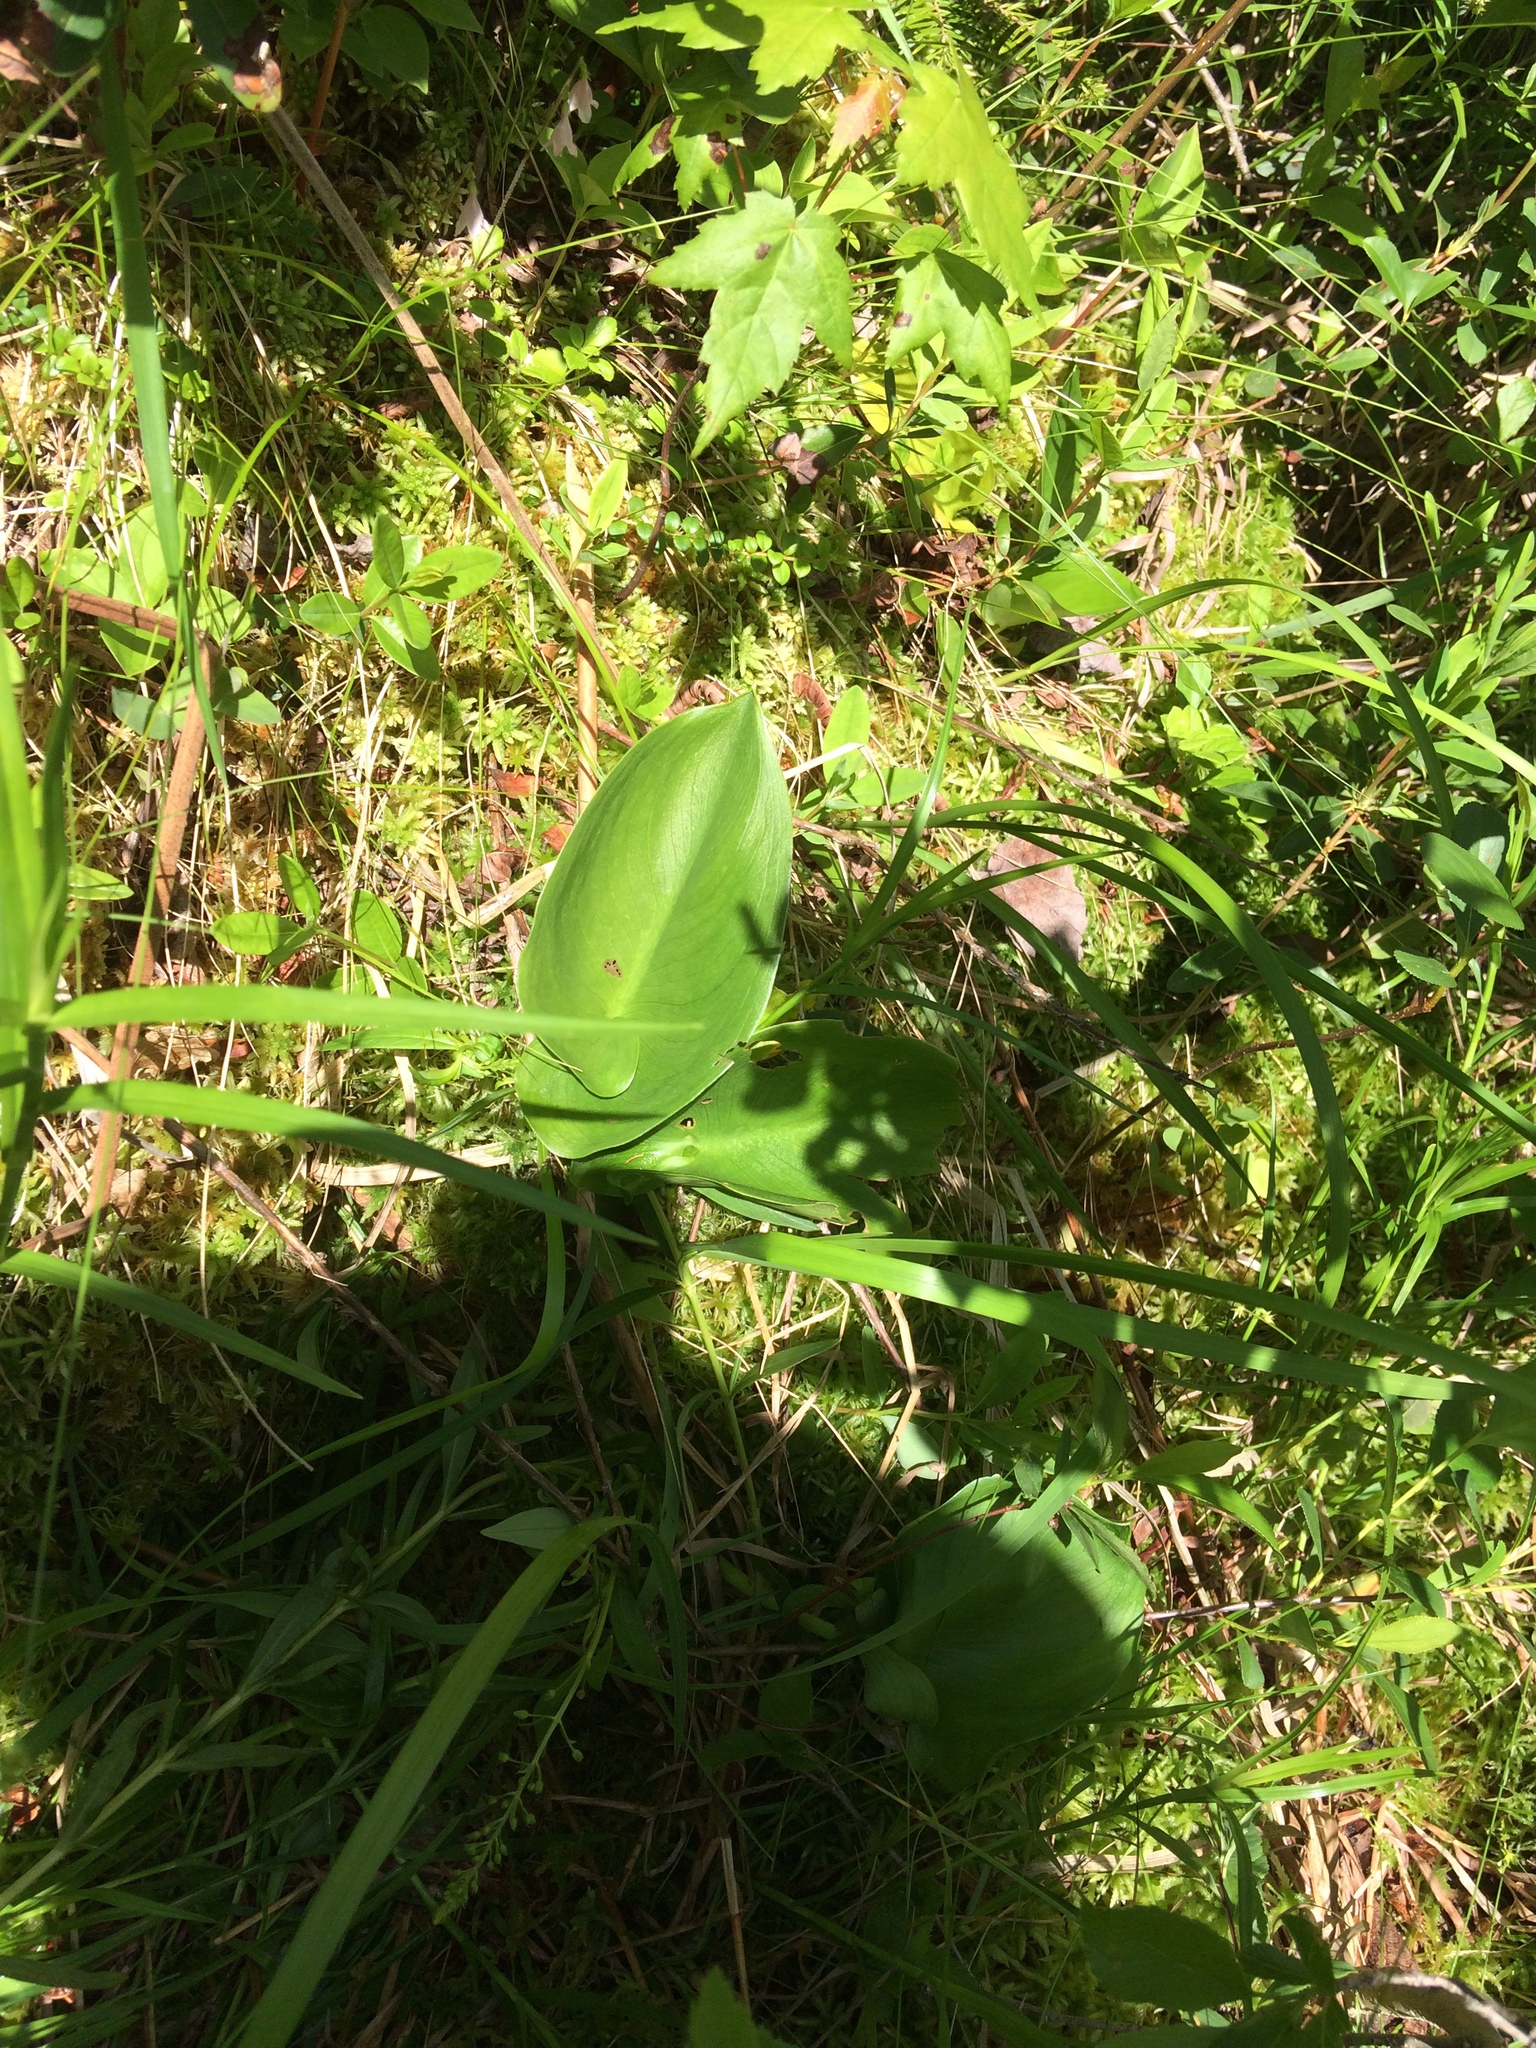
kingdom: Plantae
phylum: Tracheophyta
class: Liliopsida
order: Alismatales
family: Araceae
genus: Calla
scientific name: Calla palustris
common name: Bog arum
